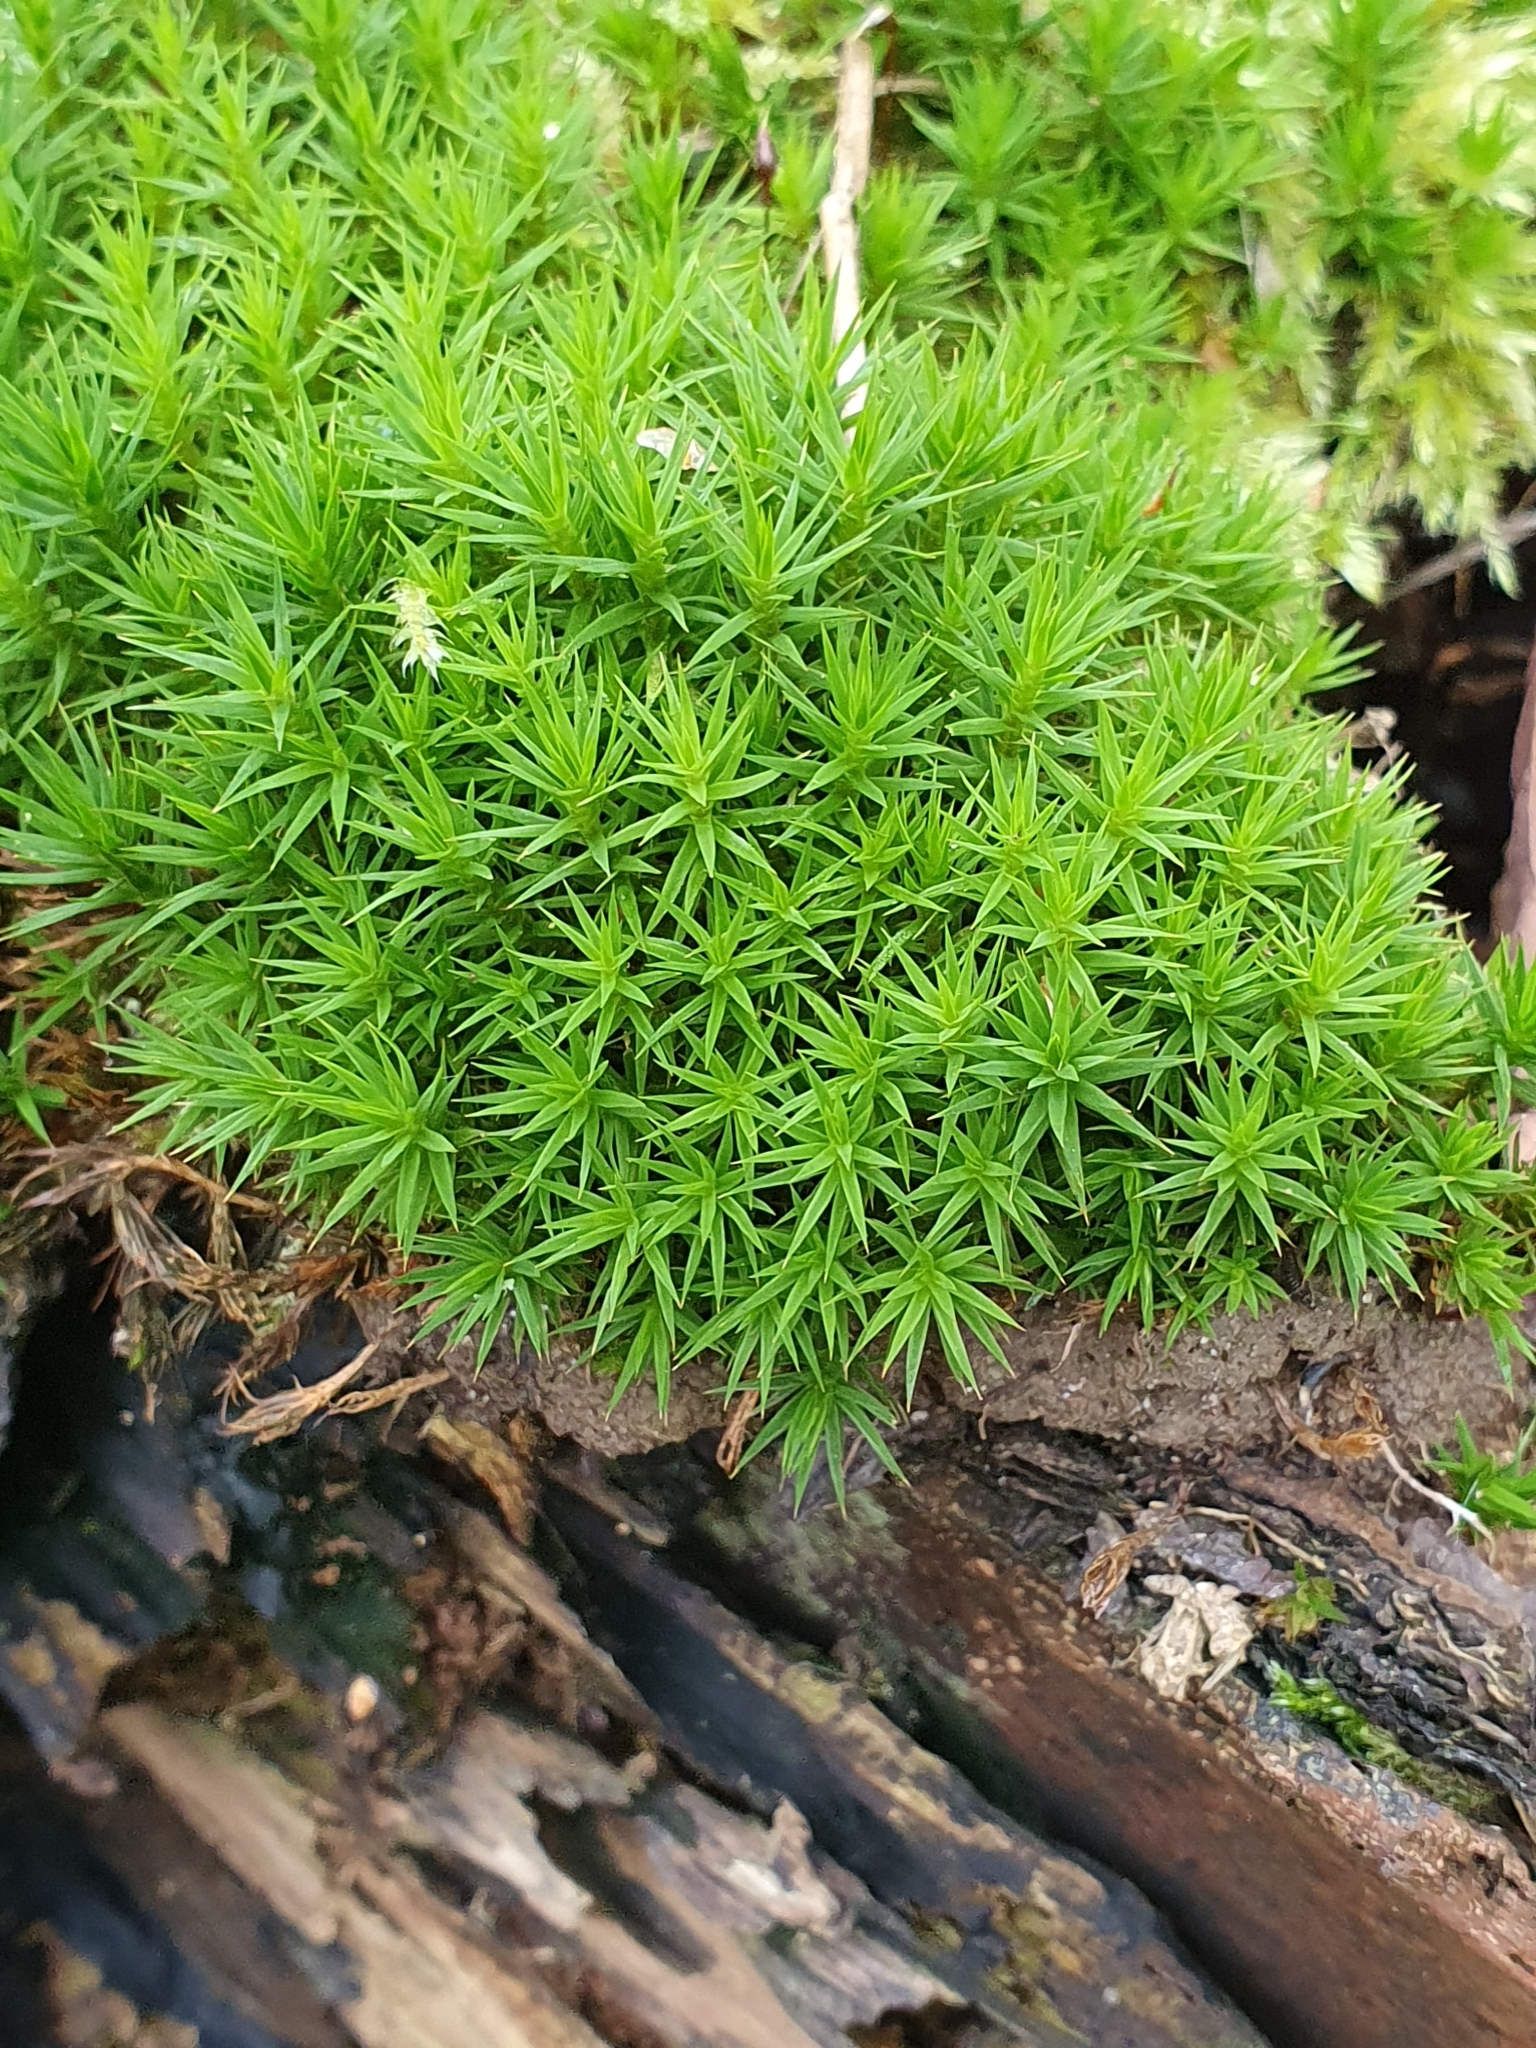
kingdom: Plantae
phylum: Bryophyta
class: Polytrichopsida
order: Polytrichales
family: Polytrichaceae
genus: Polytrichum
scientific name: Polytrichum formosum
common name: Bank haircap moss
